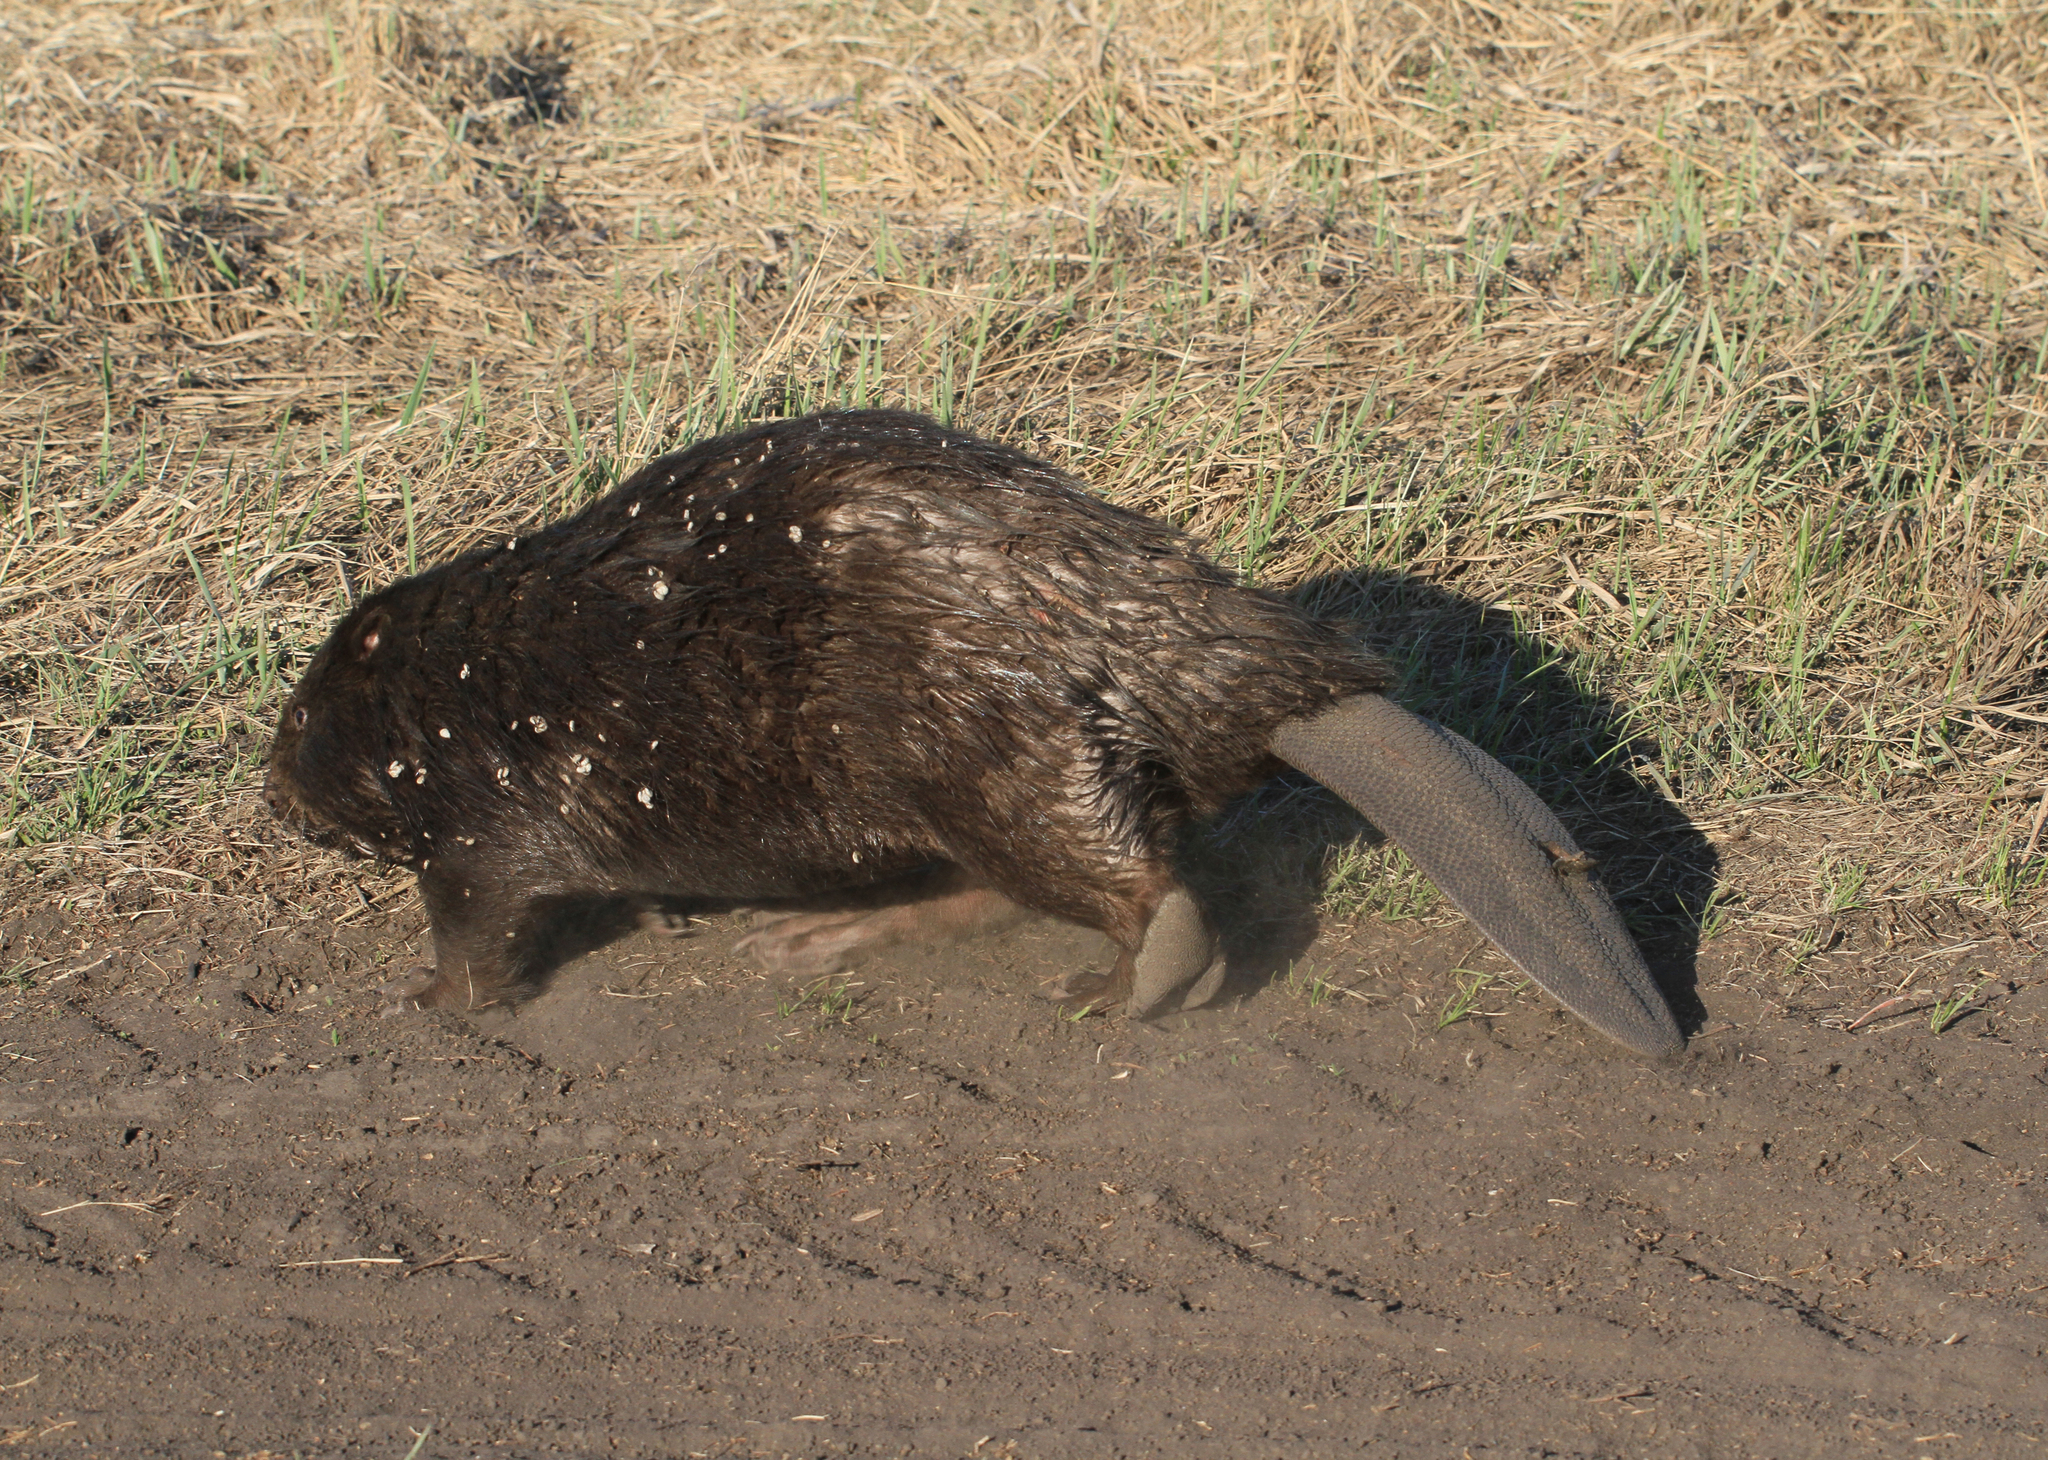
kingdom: Animalia
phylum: Chordata
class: Mammalia
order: Rodentia
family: Castoridae
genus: Castor
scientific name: Castor fiber
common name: Eurasian beaver
